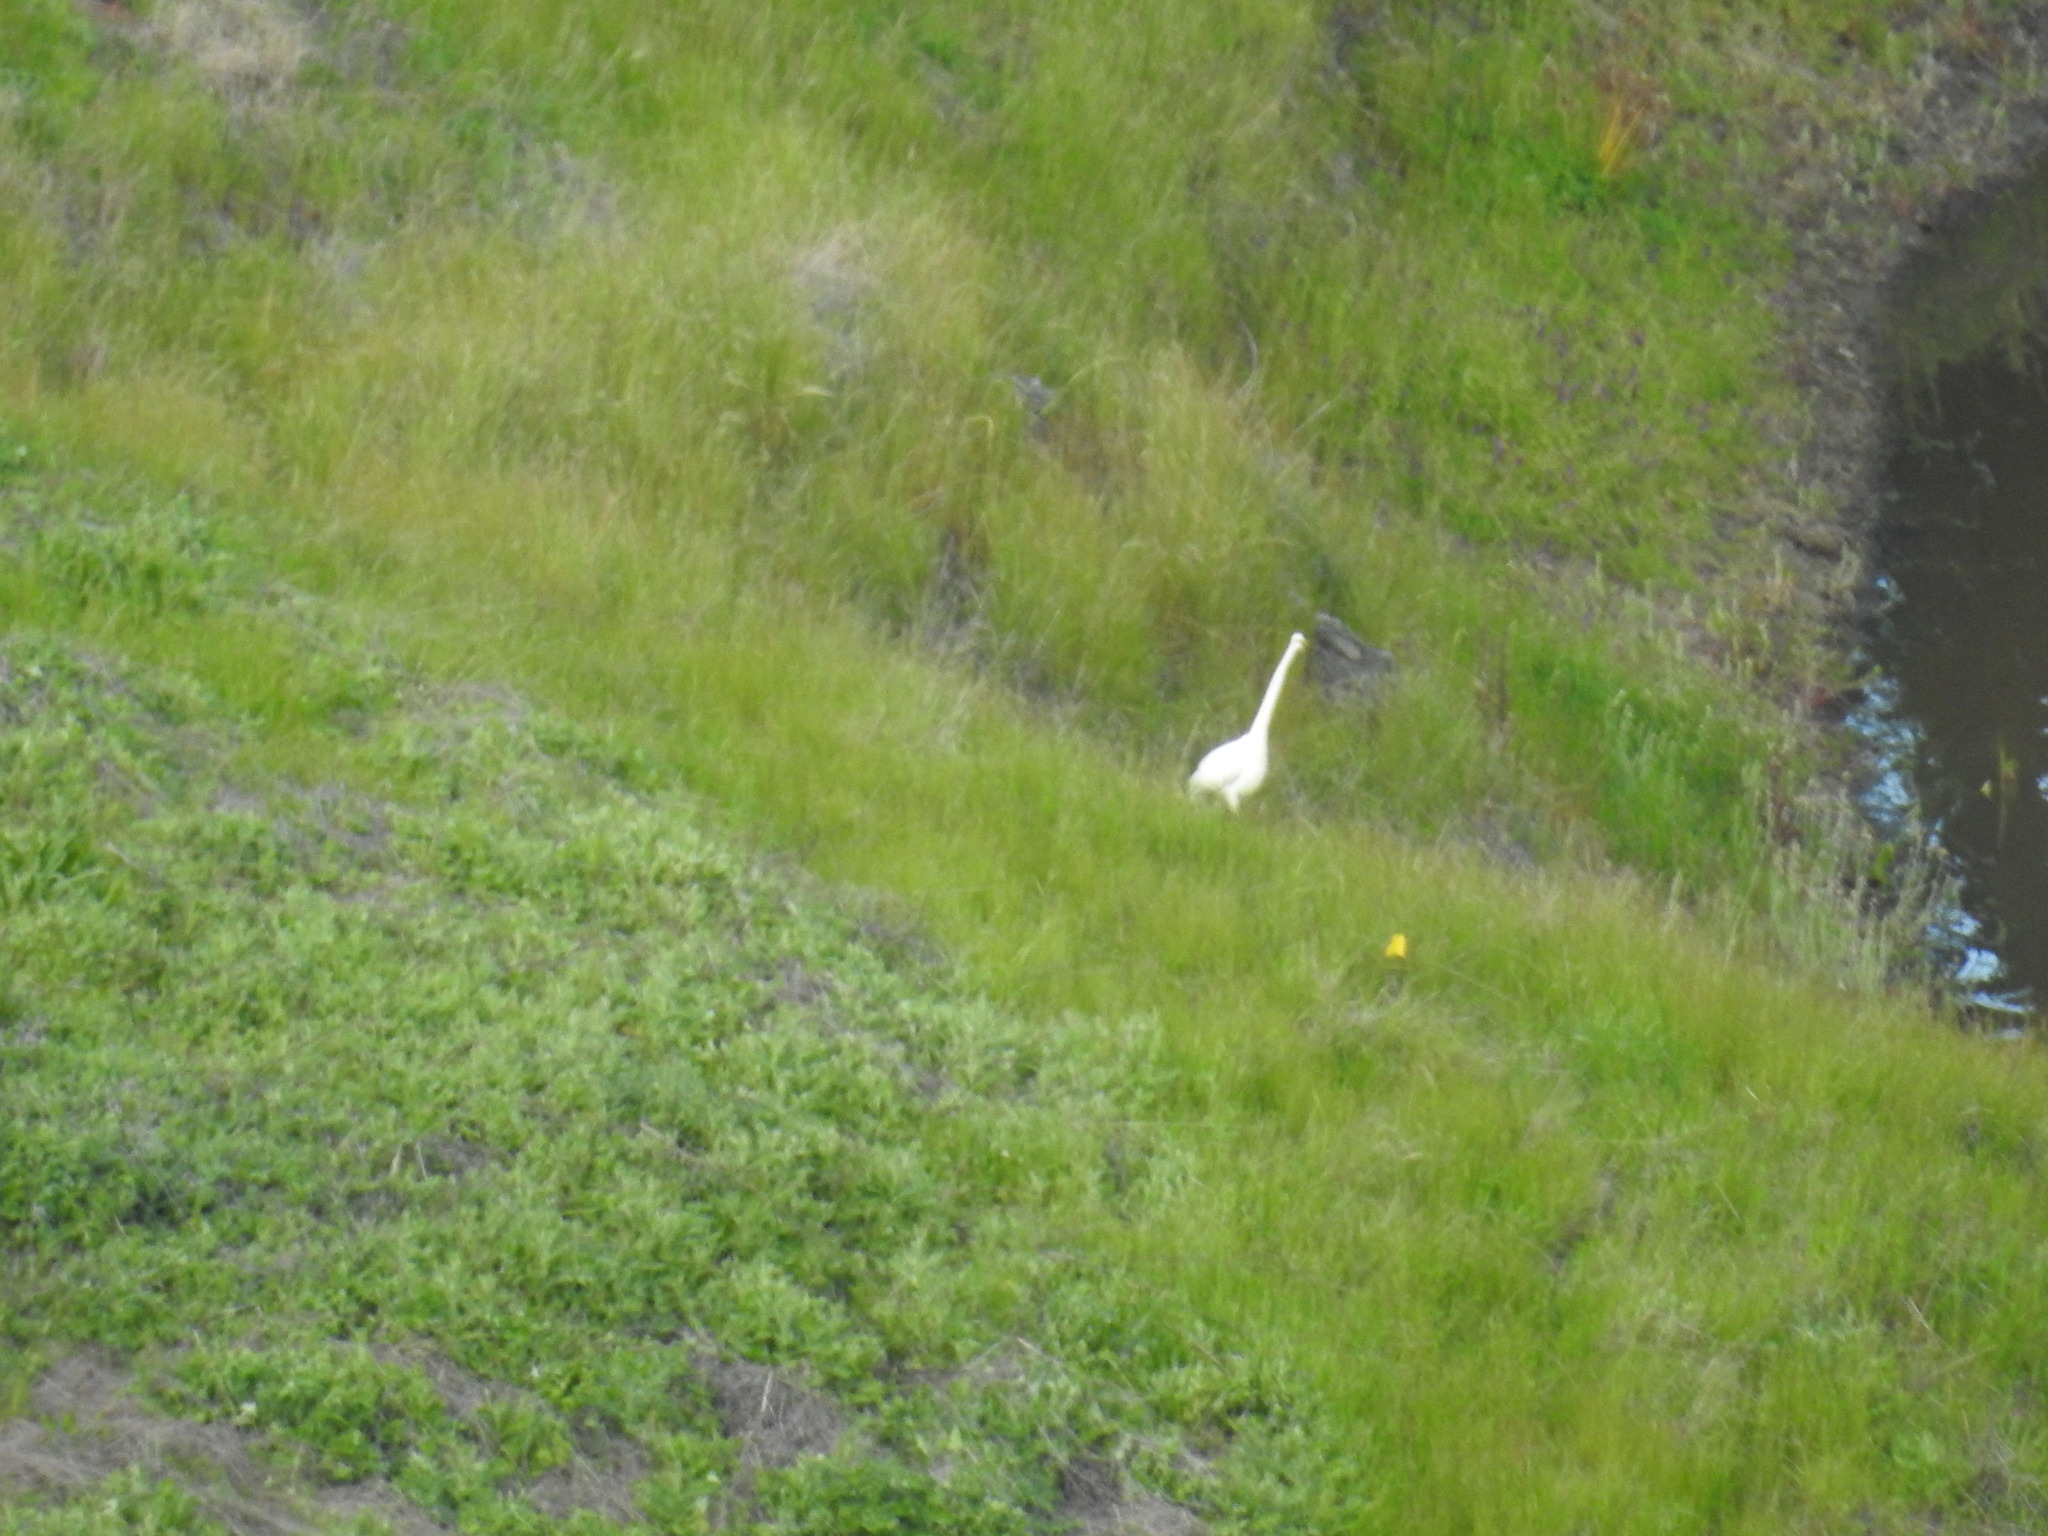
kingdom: Animalia
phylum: Chordata
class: Aves
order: Pelecaniformes
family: Ardeidae
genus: Ardea
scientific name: Ardea alba
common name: Great egret
